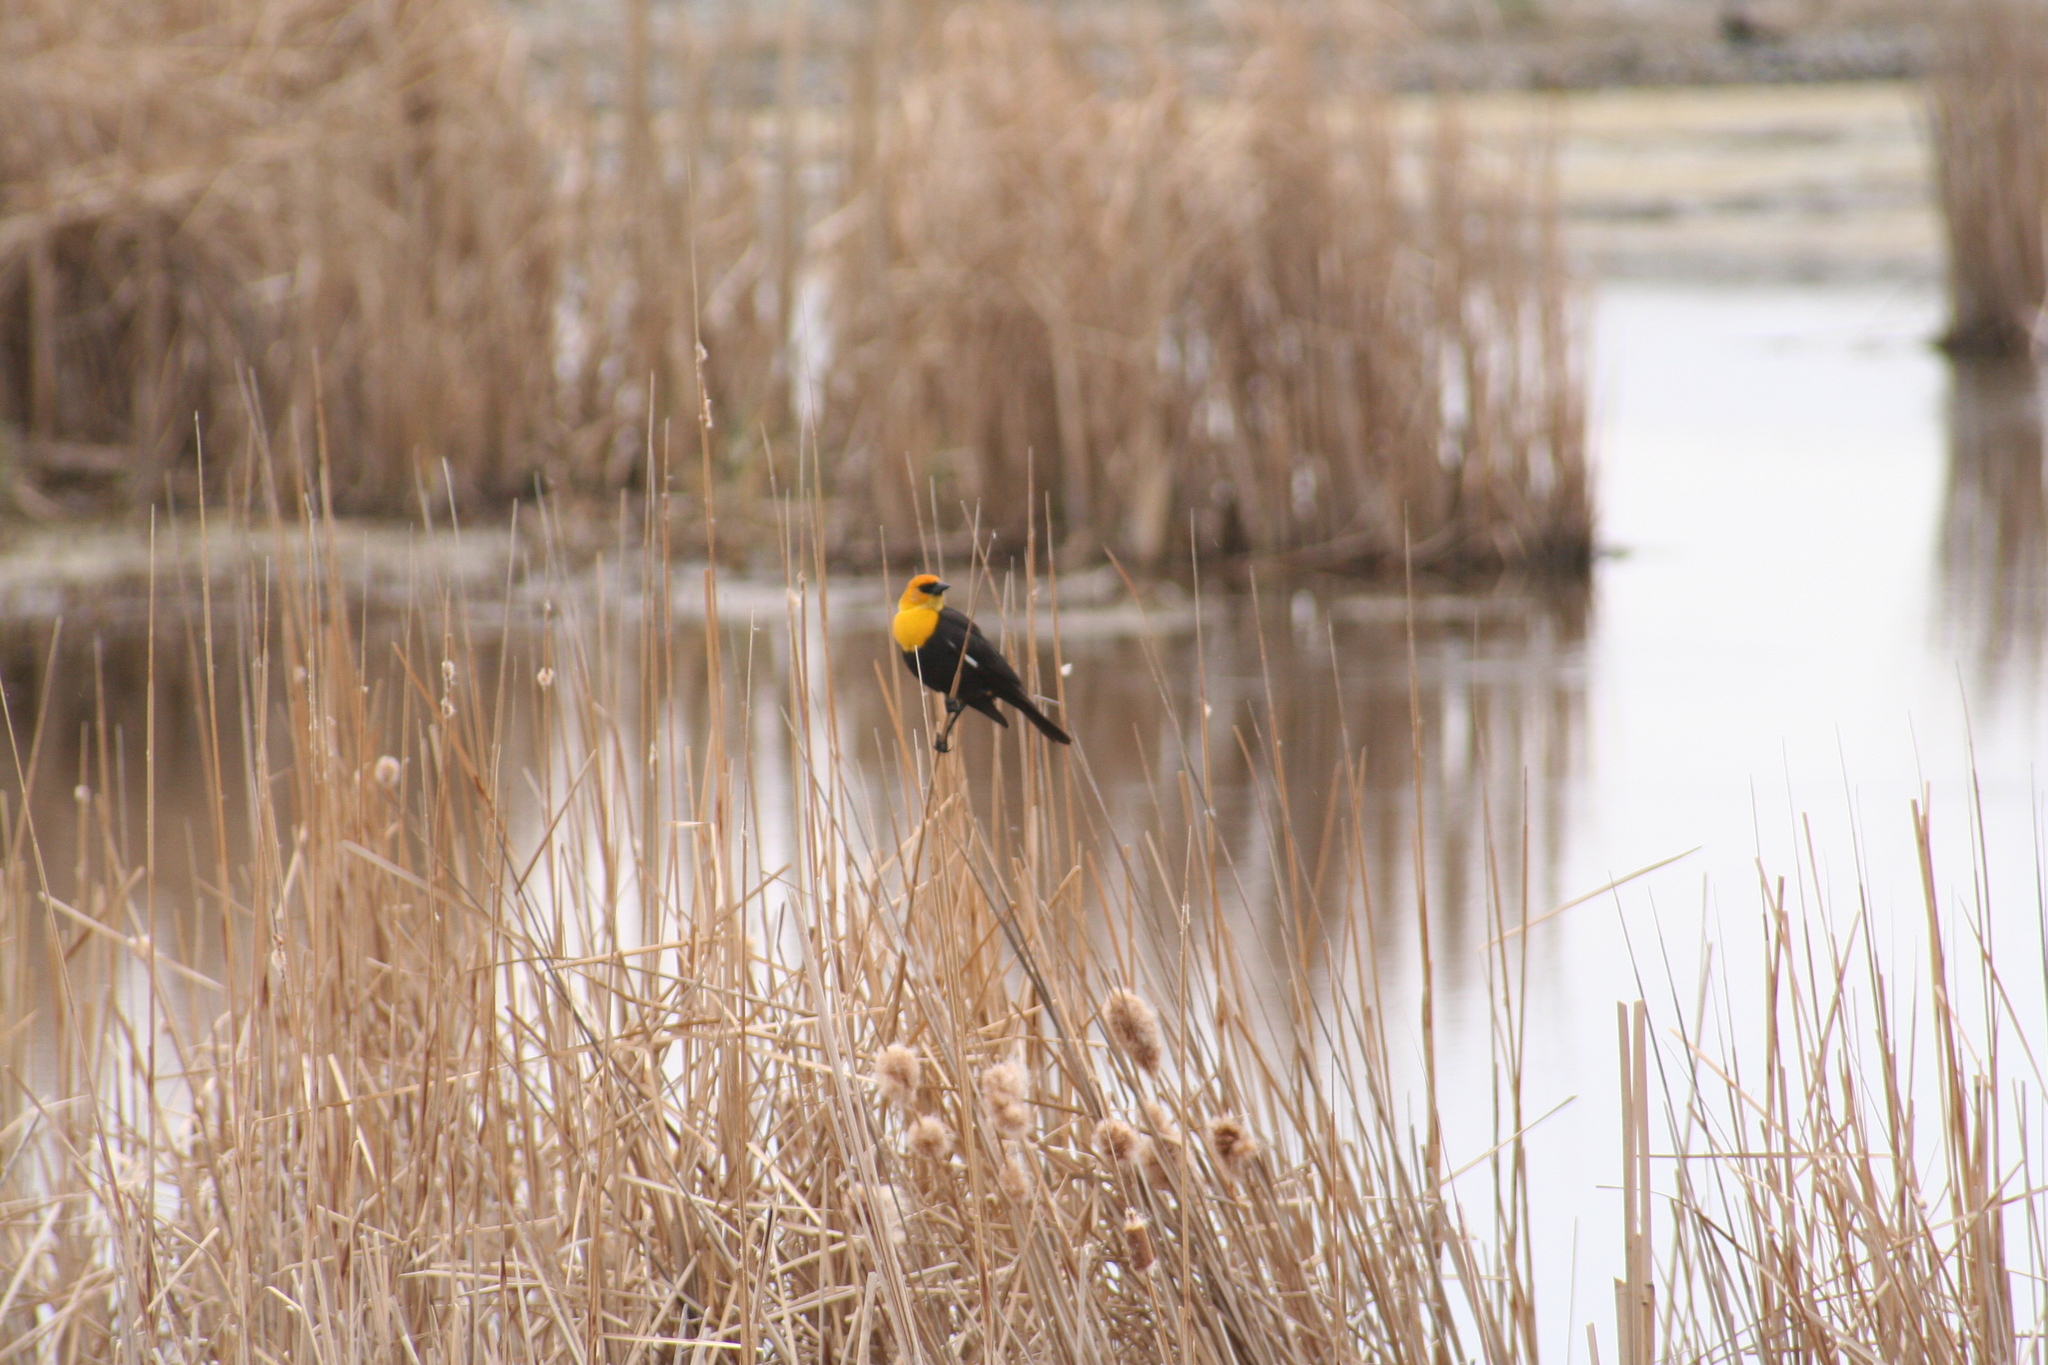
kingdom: Animalia
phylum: Chordata
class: Aves
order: Passeriformes
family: Icteridae
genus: Xanthocephalus
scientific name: Xanthocephalus xanthocephalus
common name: Yellow-headed blackbird
